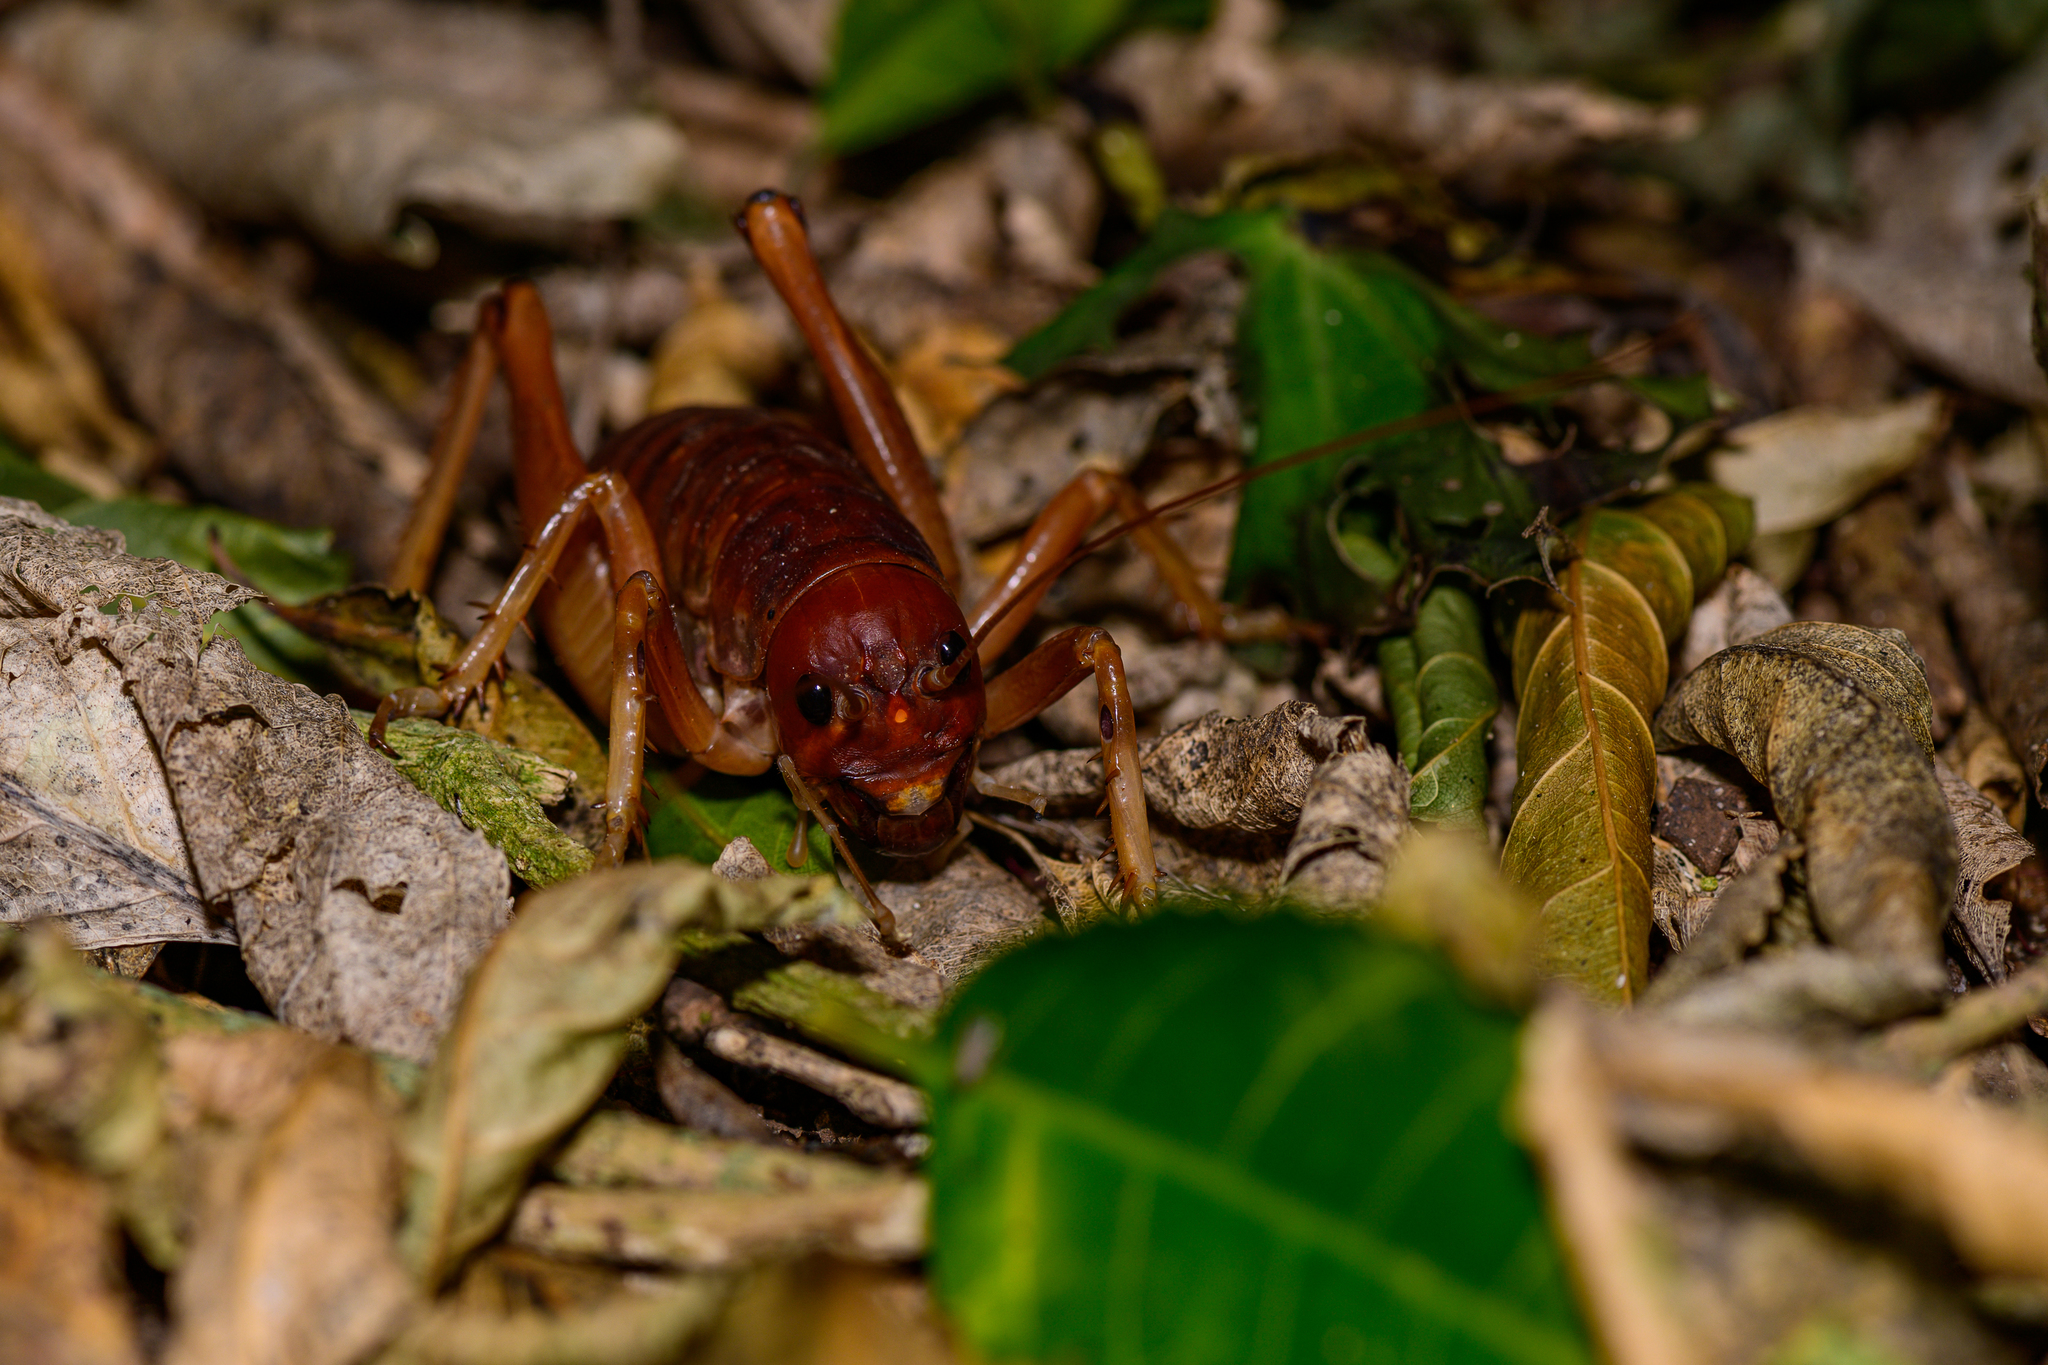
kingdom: Animalia
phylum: Arthropoda
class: Insecta
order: Orthoptera
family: Anostostomatidae
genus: Motuweta
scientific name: Motuweta isolata
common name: Mercury islands tusked weta
